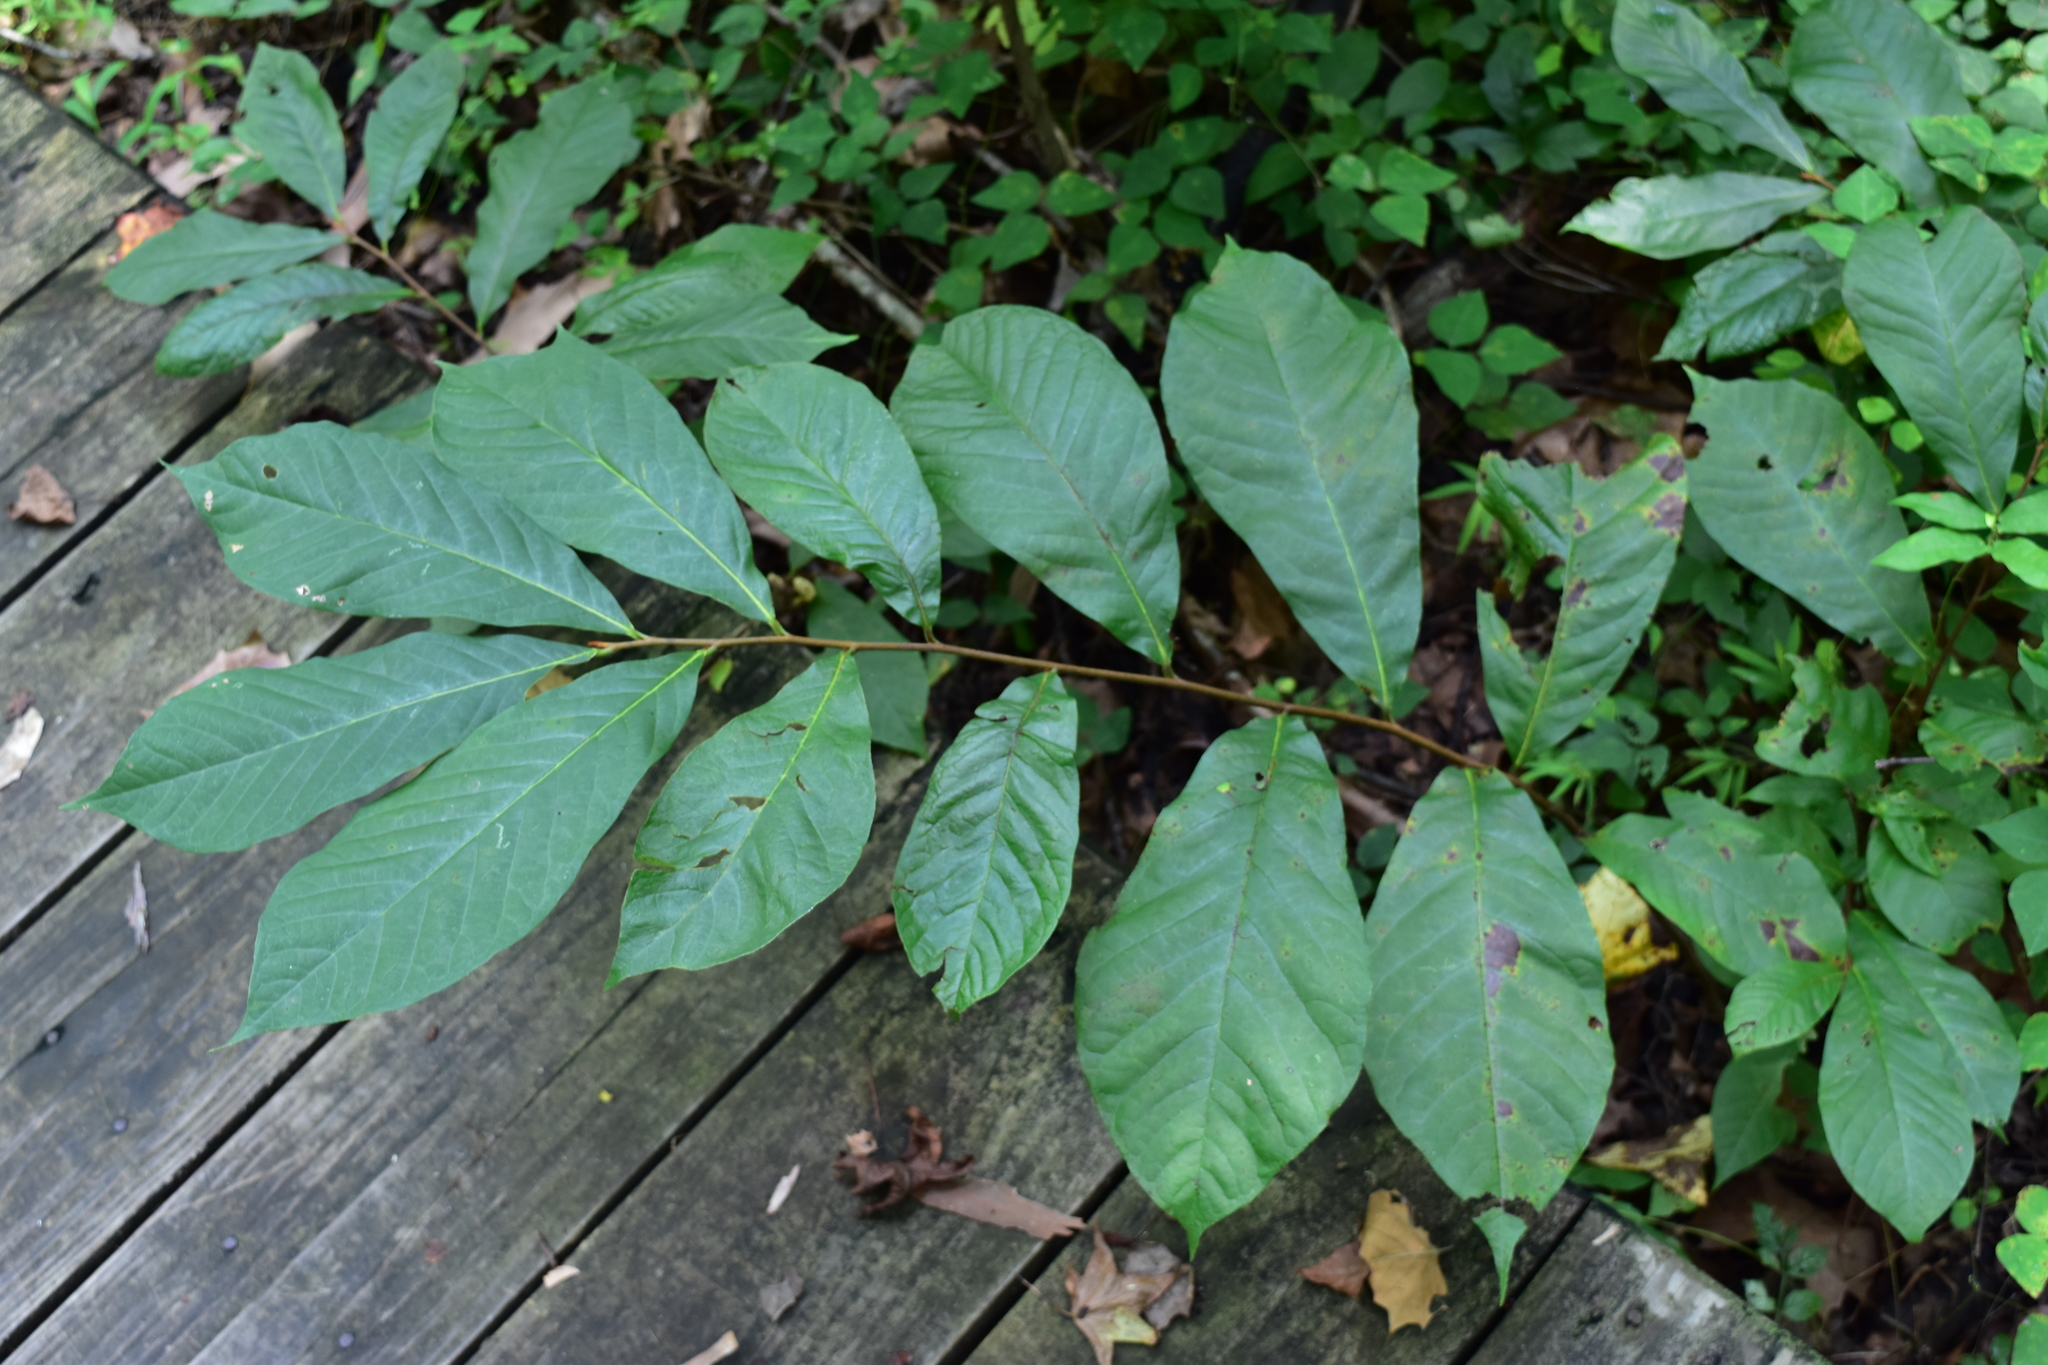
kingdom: Plantae
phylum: Tracheophyta
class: Magnoliopsida
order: Magnoliales
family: Annonaceae
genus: Asimina
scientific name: Asimina triloba
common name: Dog-banana
